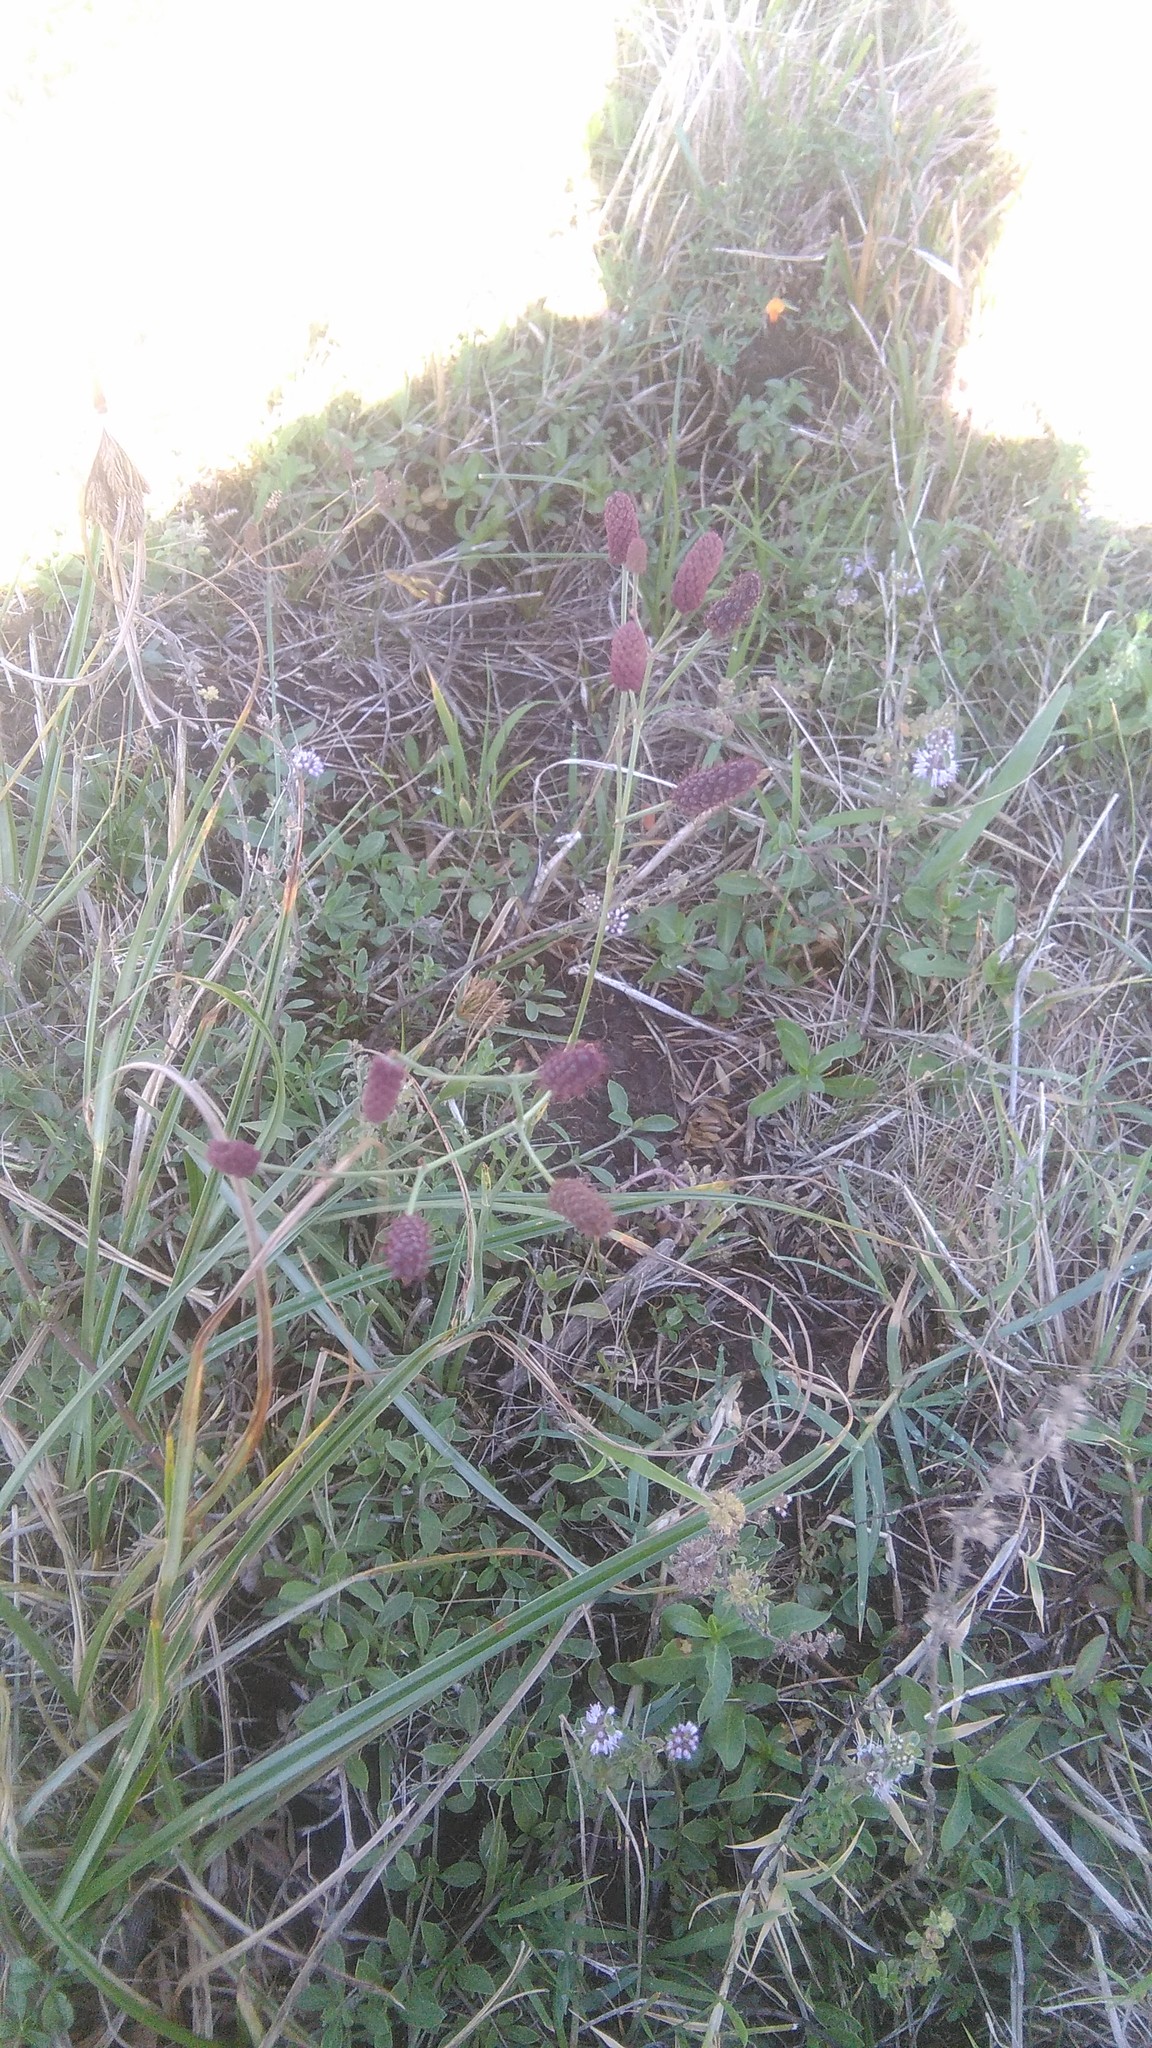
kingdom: Plantae
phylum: Tracheophyta
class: Magnoliopsida
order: Apiales
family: Apiaceae
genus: Eryngium
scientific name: Eryngium ebracteatum
